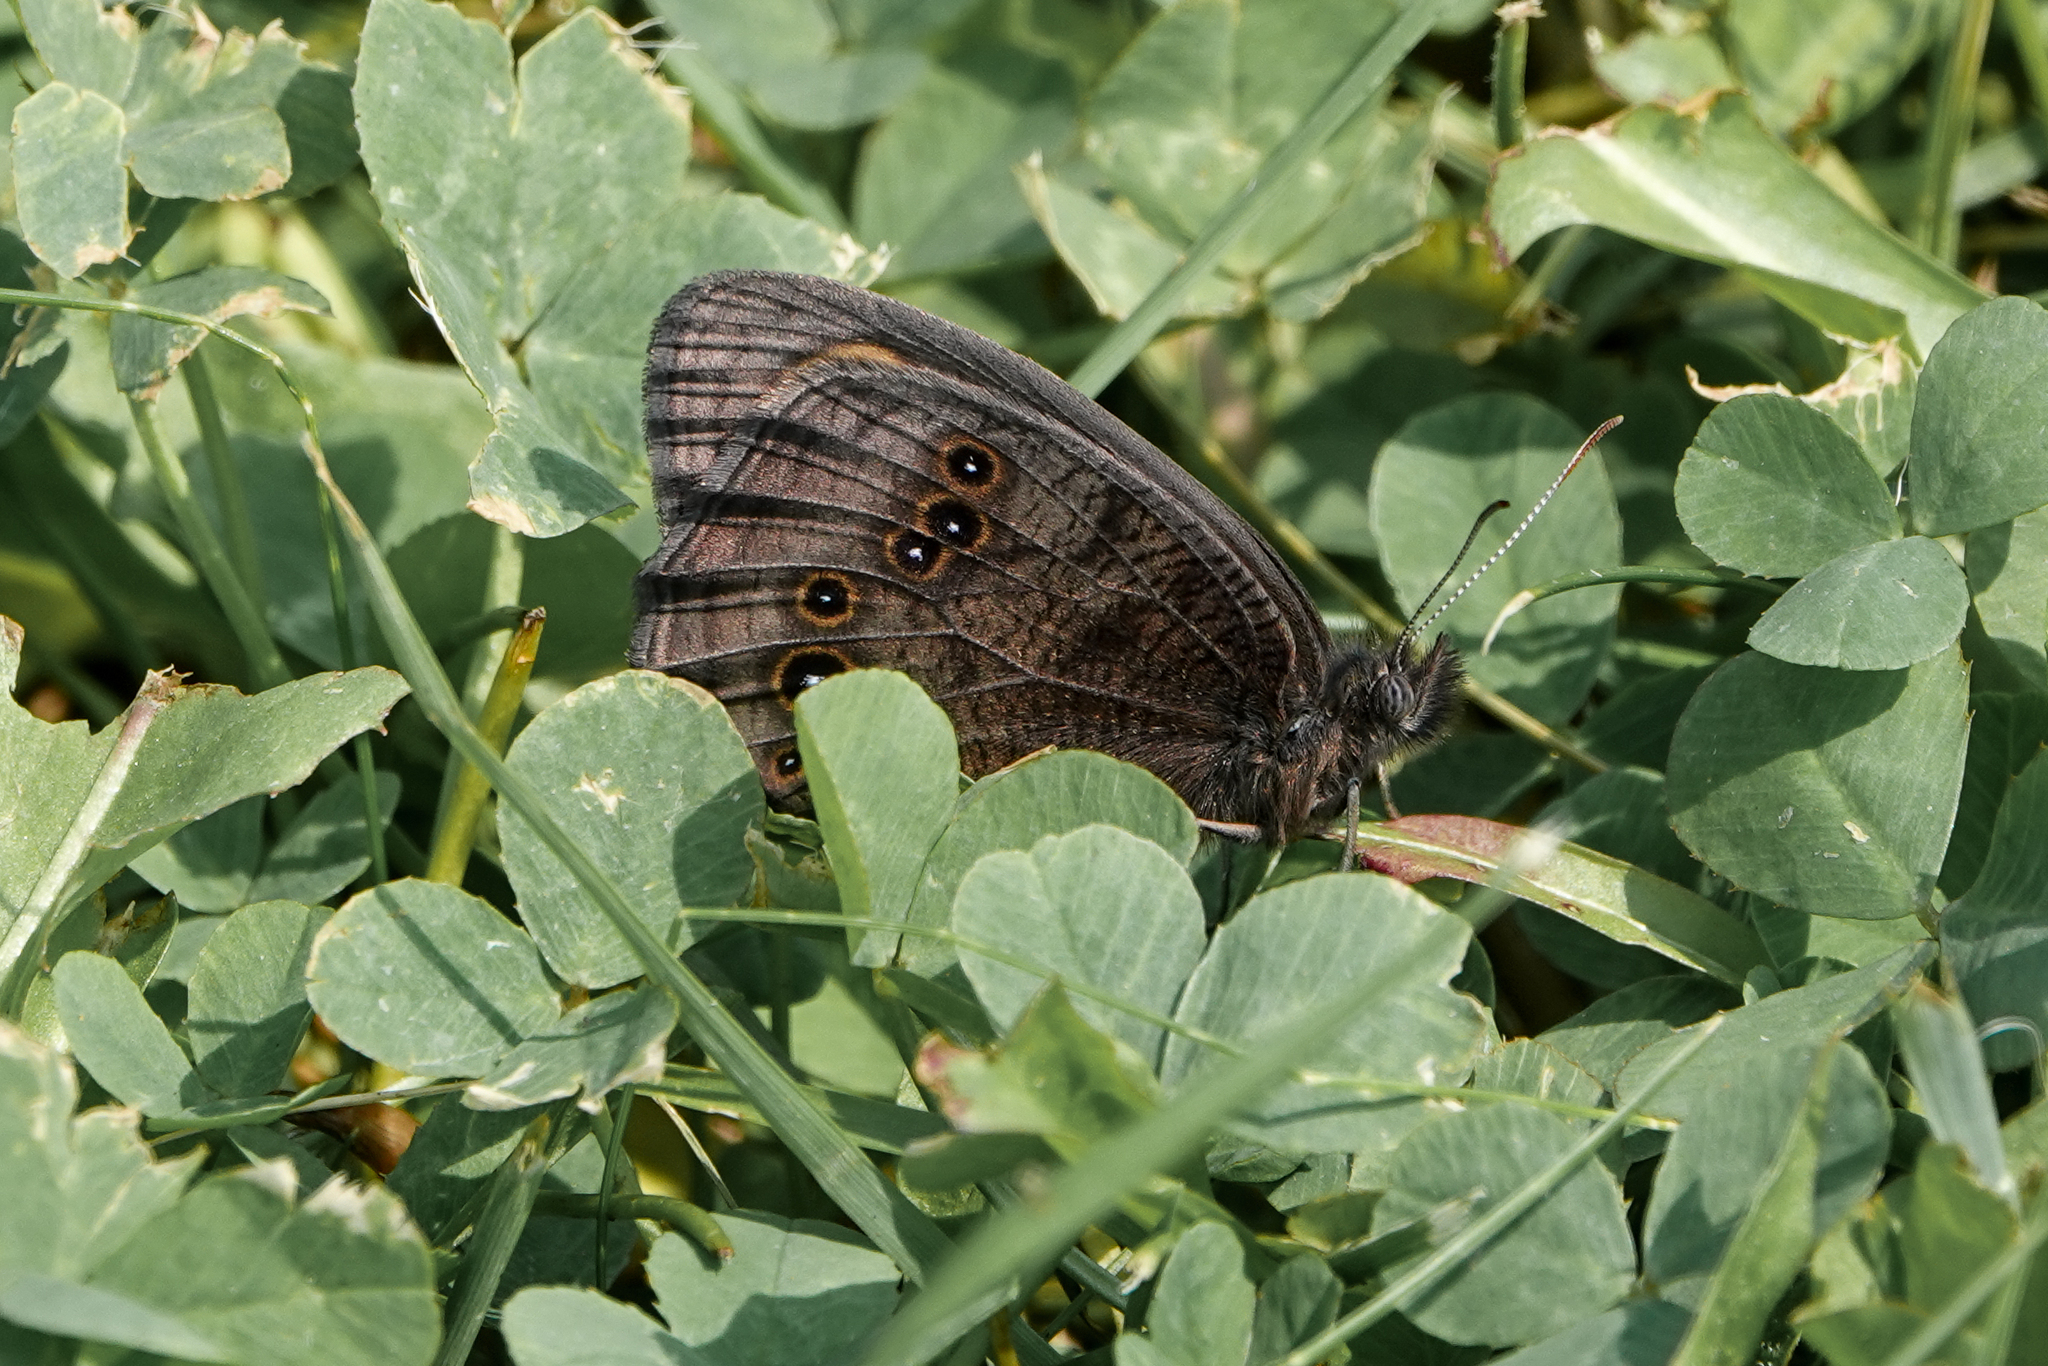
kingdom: Animalia
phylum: Arthropoda
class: Insecta
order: Lepidoptera
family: Nymphalidae
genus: Cercyonis
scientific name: Cercyonis pegala
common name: Common wood-nymph
